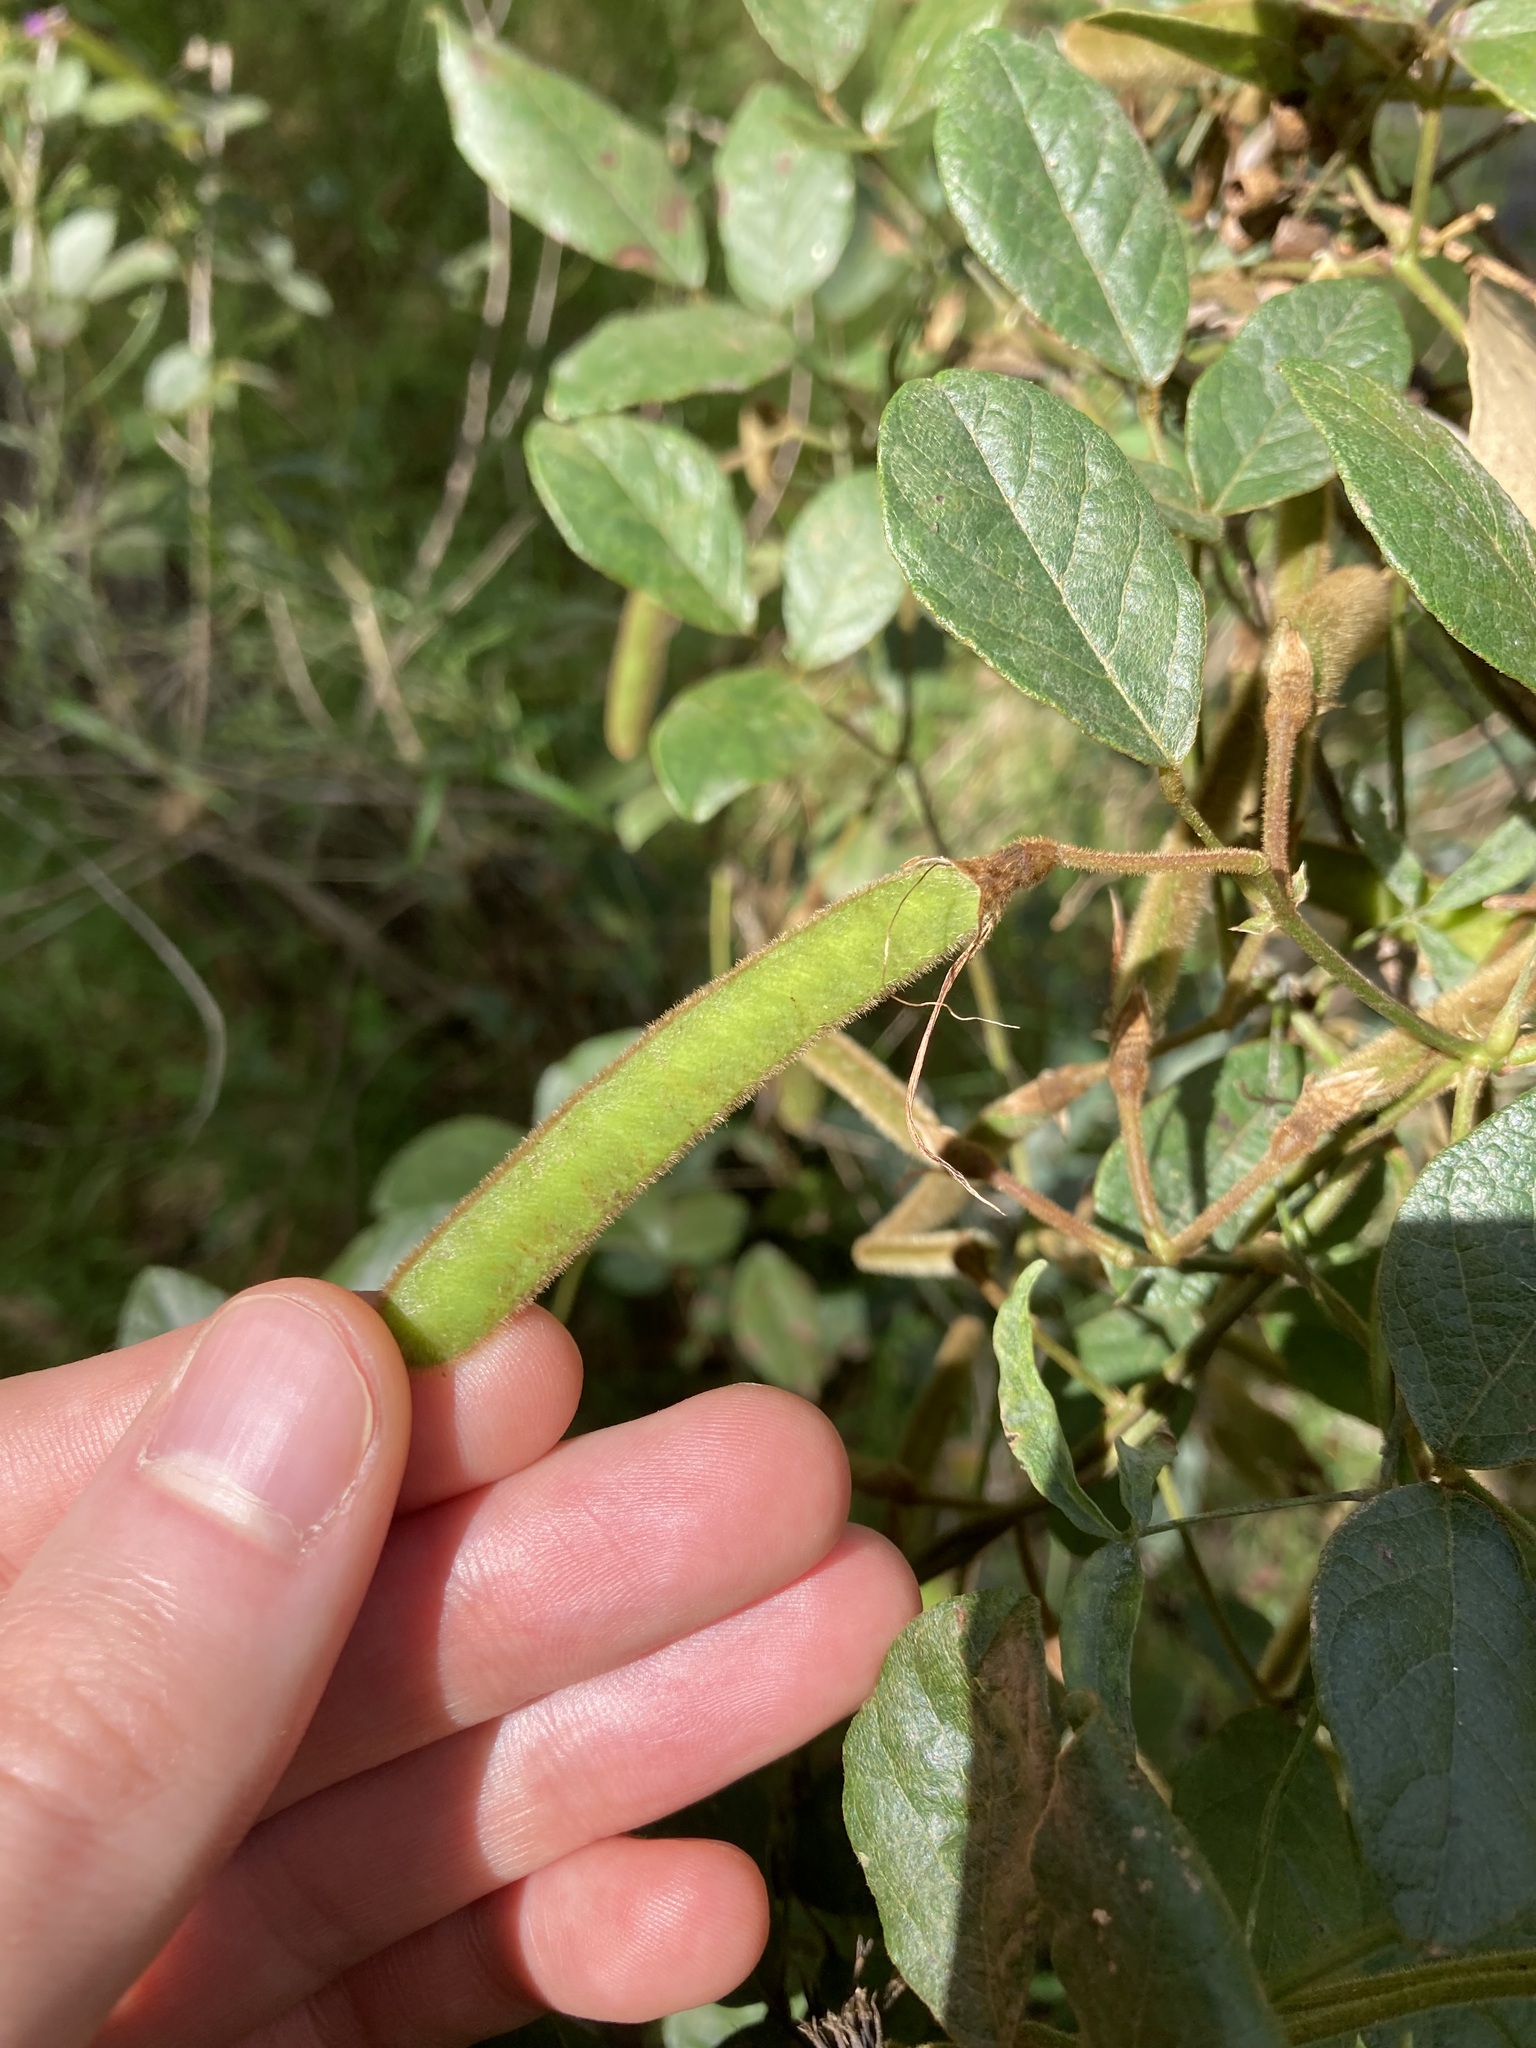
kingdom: Plantae
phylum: Tracheophyta
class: Magnoliopsida
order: Fabales
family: Fabaceae
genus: Kennedia
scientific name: Kennedia rubicunda
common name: Red kennedy-pea
